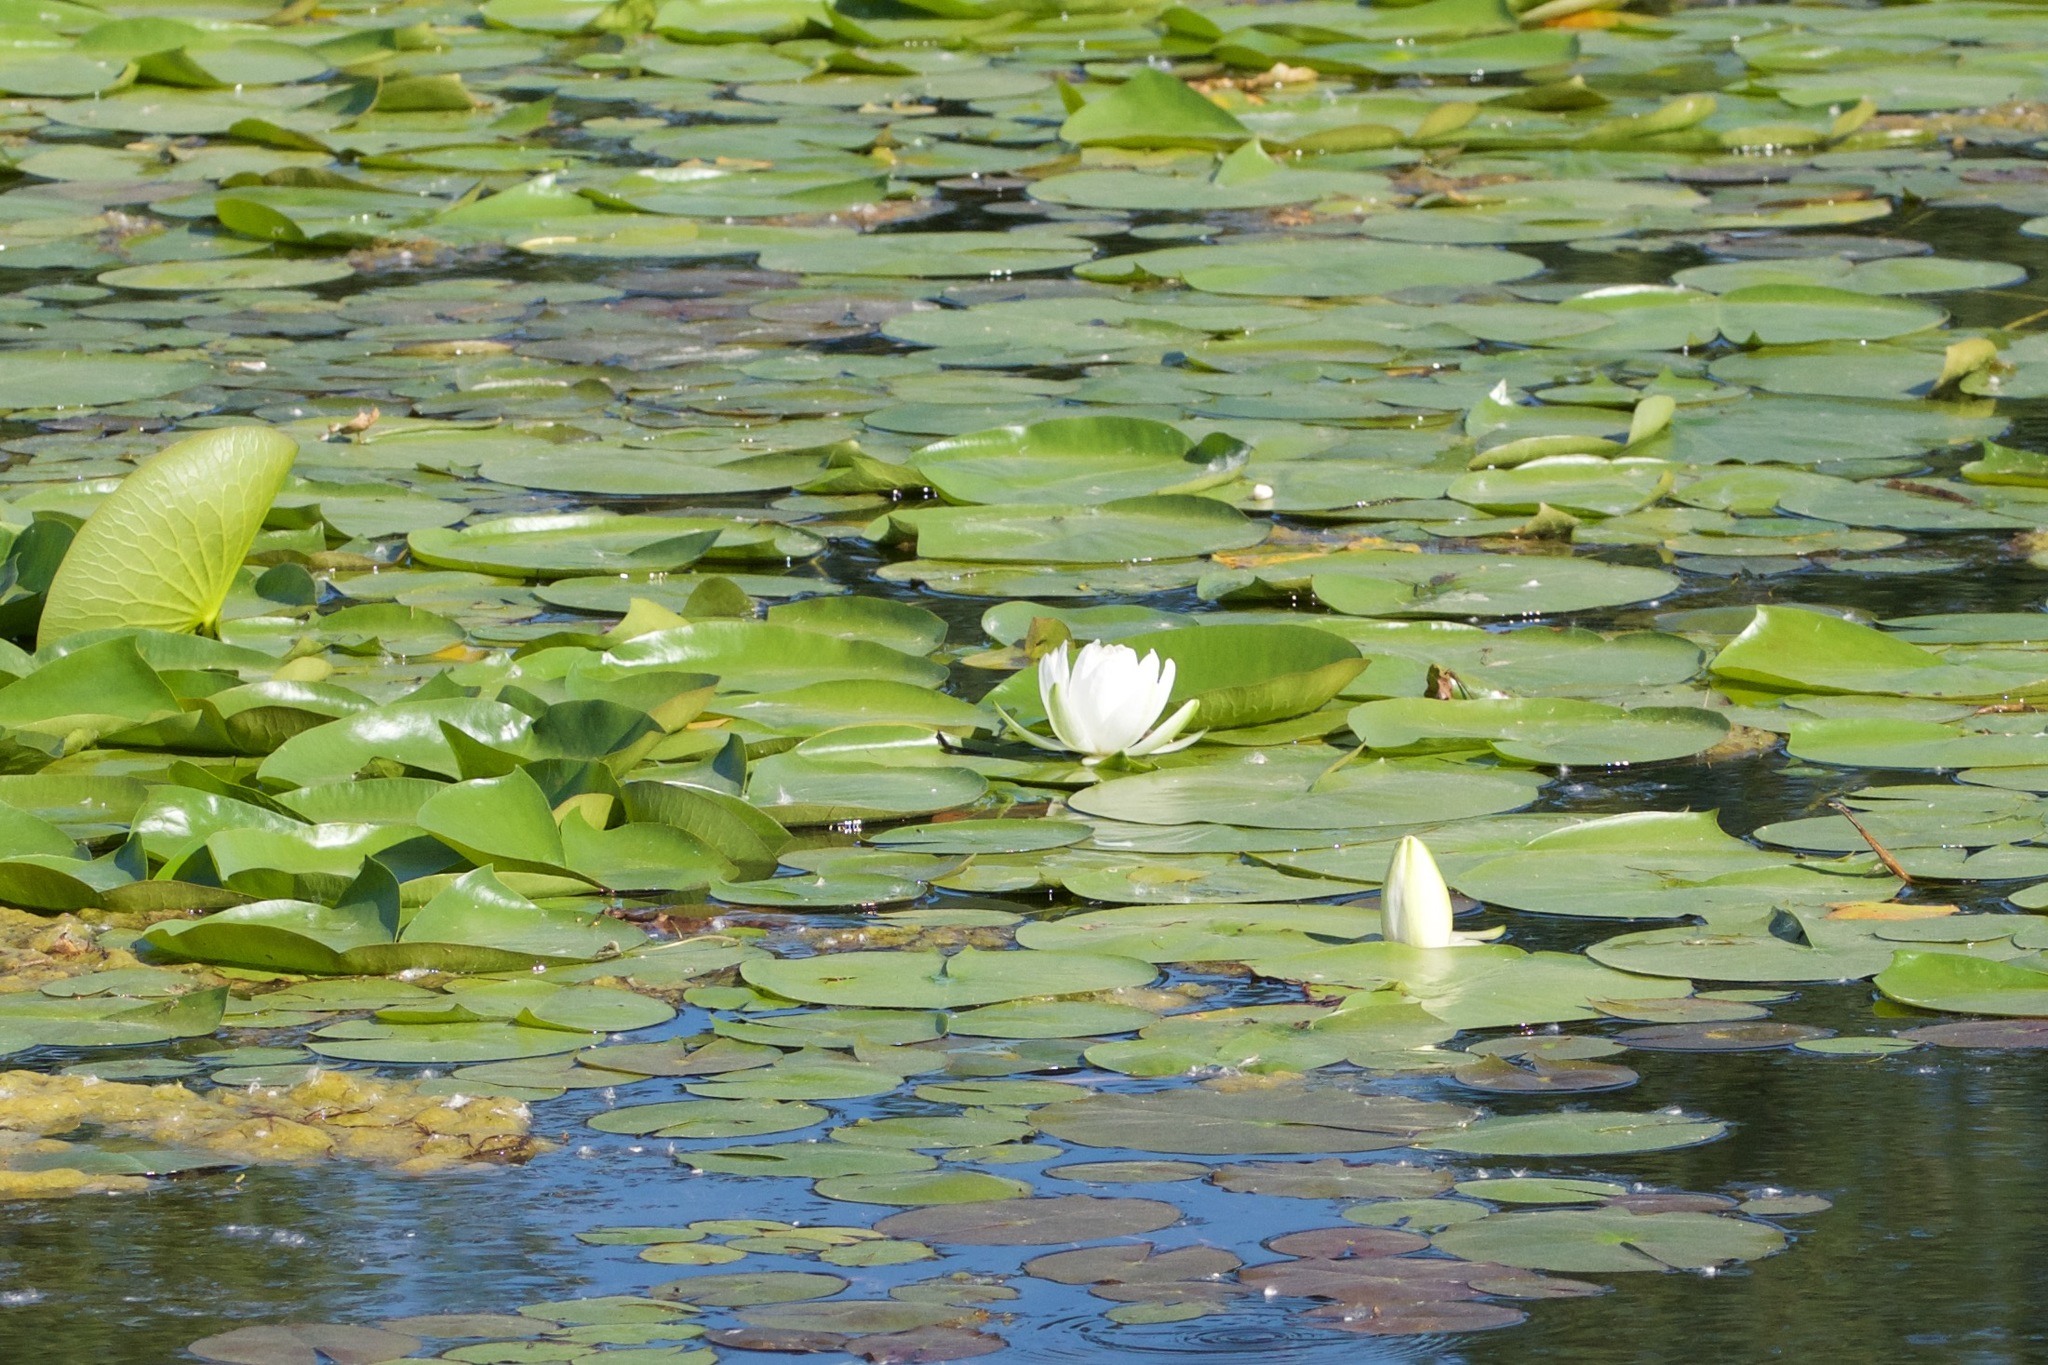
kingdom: Plantae
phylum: Tracheophyta
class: Magnoliopsida
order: Nymphaeales
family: Nymphaeaceae
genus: Nymphaea
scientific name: Nymphaea odorata
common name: Fragrant water-lily
